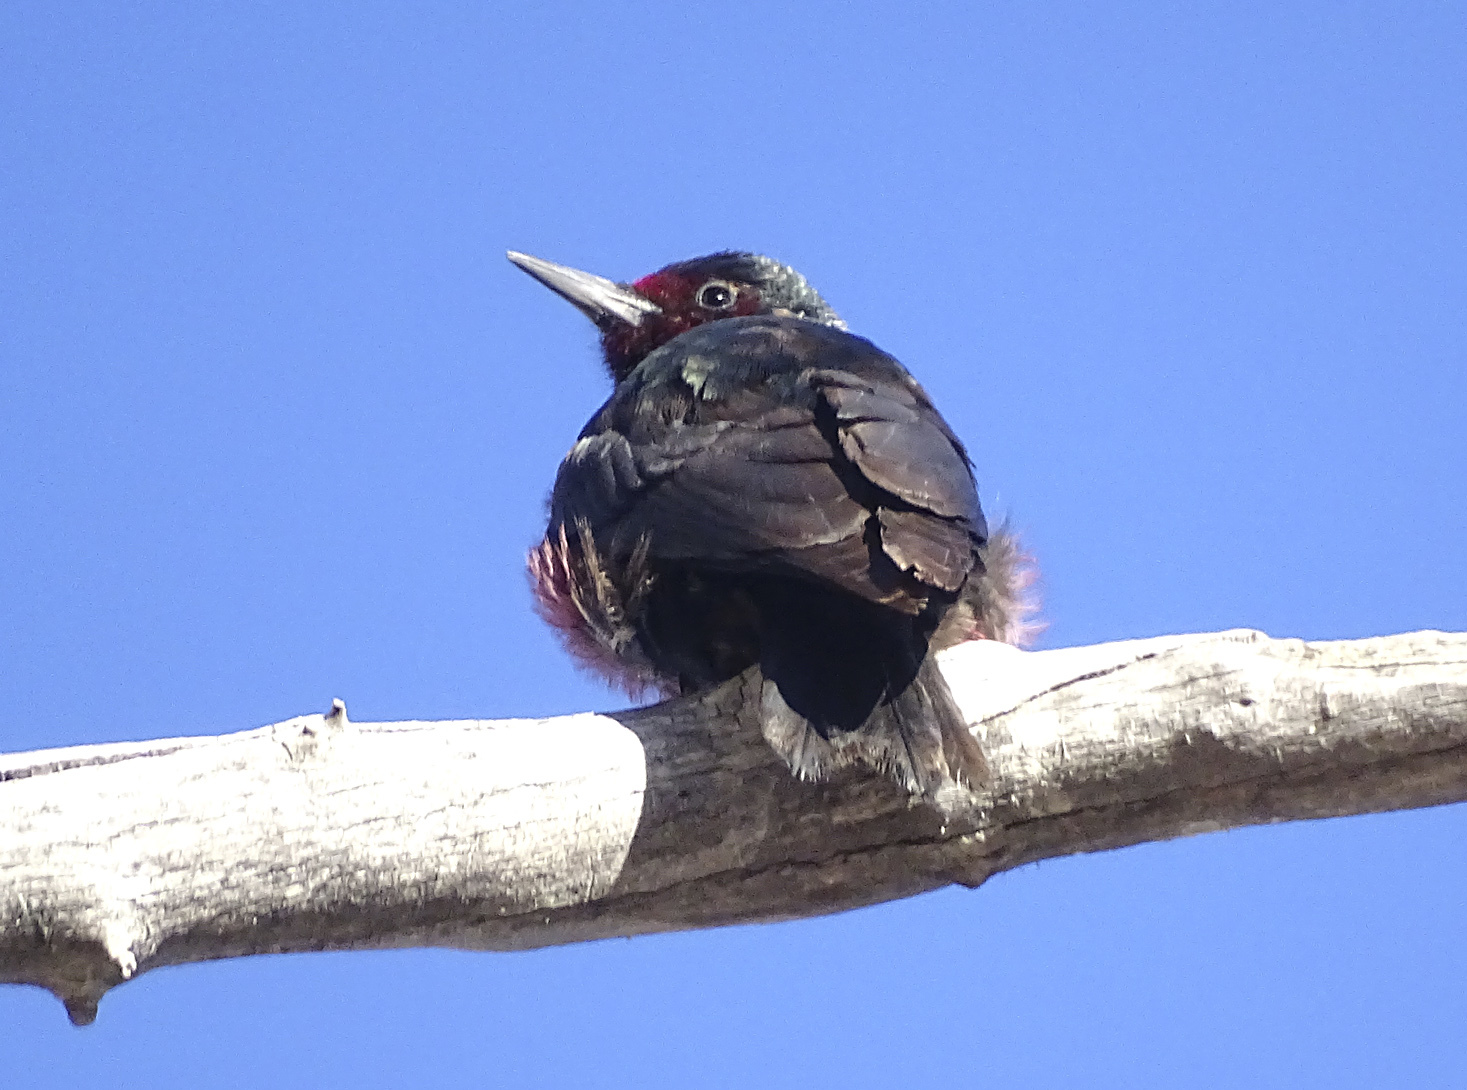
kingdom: Animalia
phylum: Chordata
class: Aves
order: Piciformes
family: Picidae
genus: Melanerpes
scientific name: Melanerpes lewis
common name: Lewis's woodpecker
